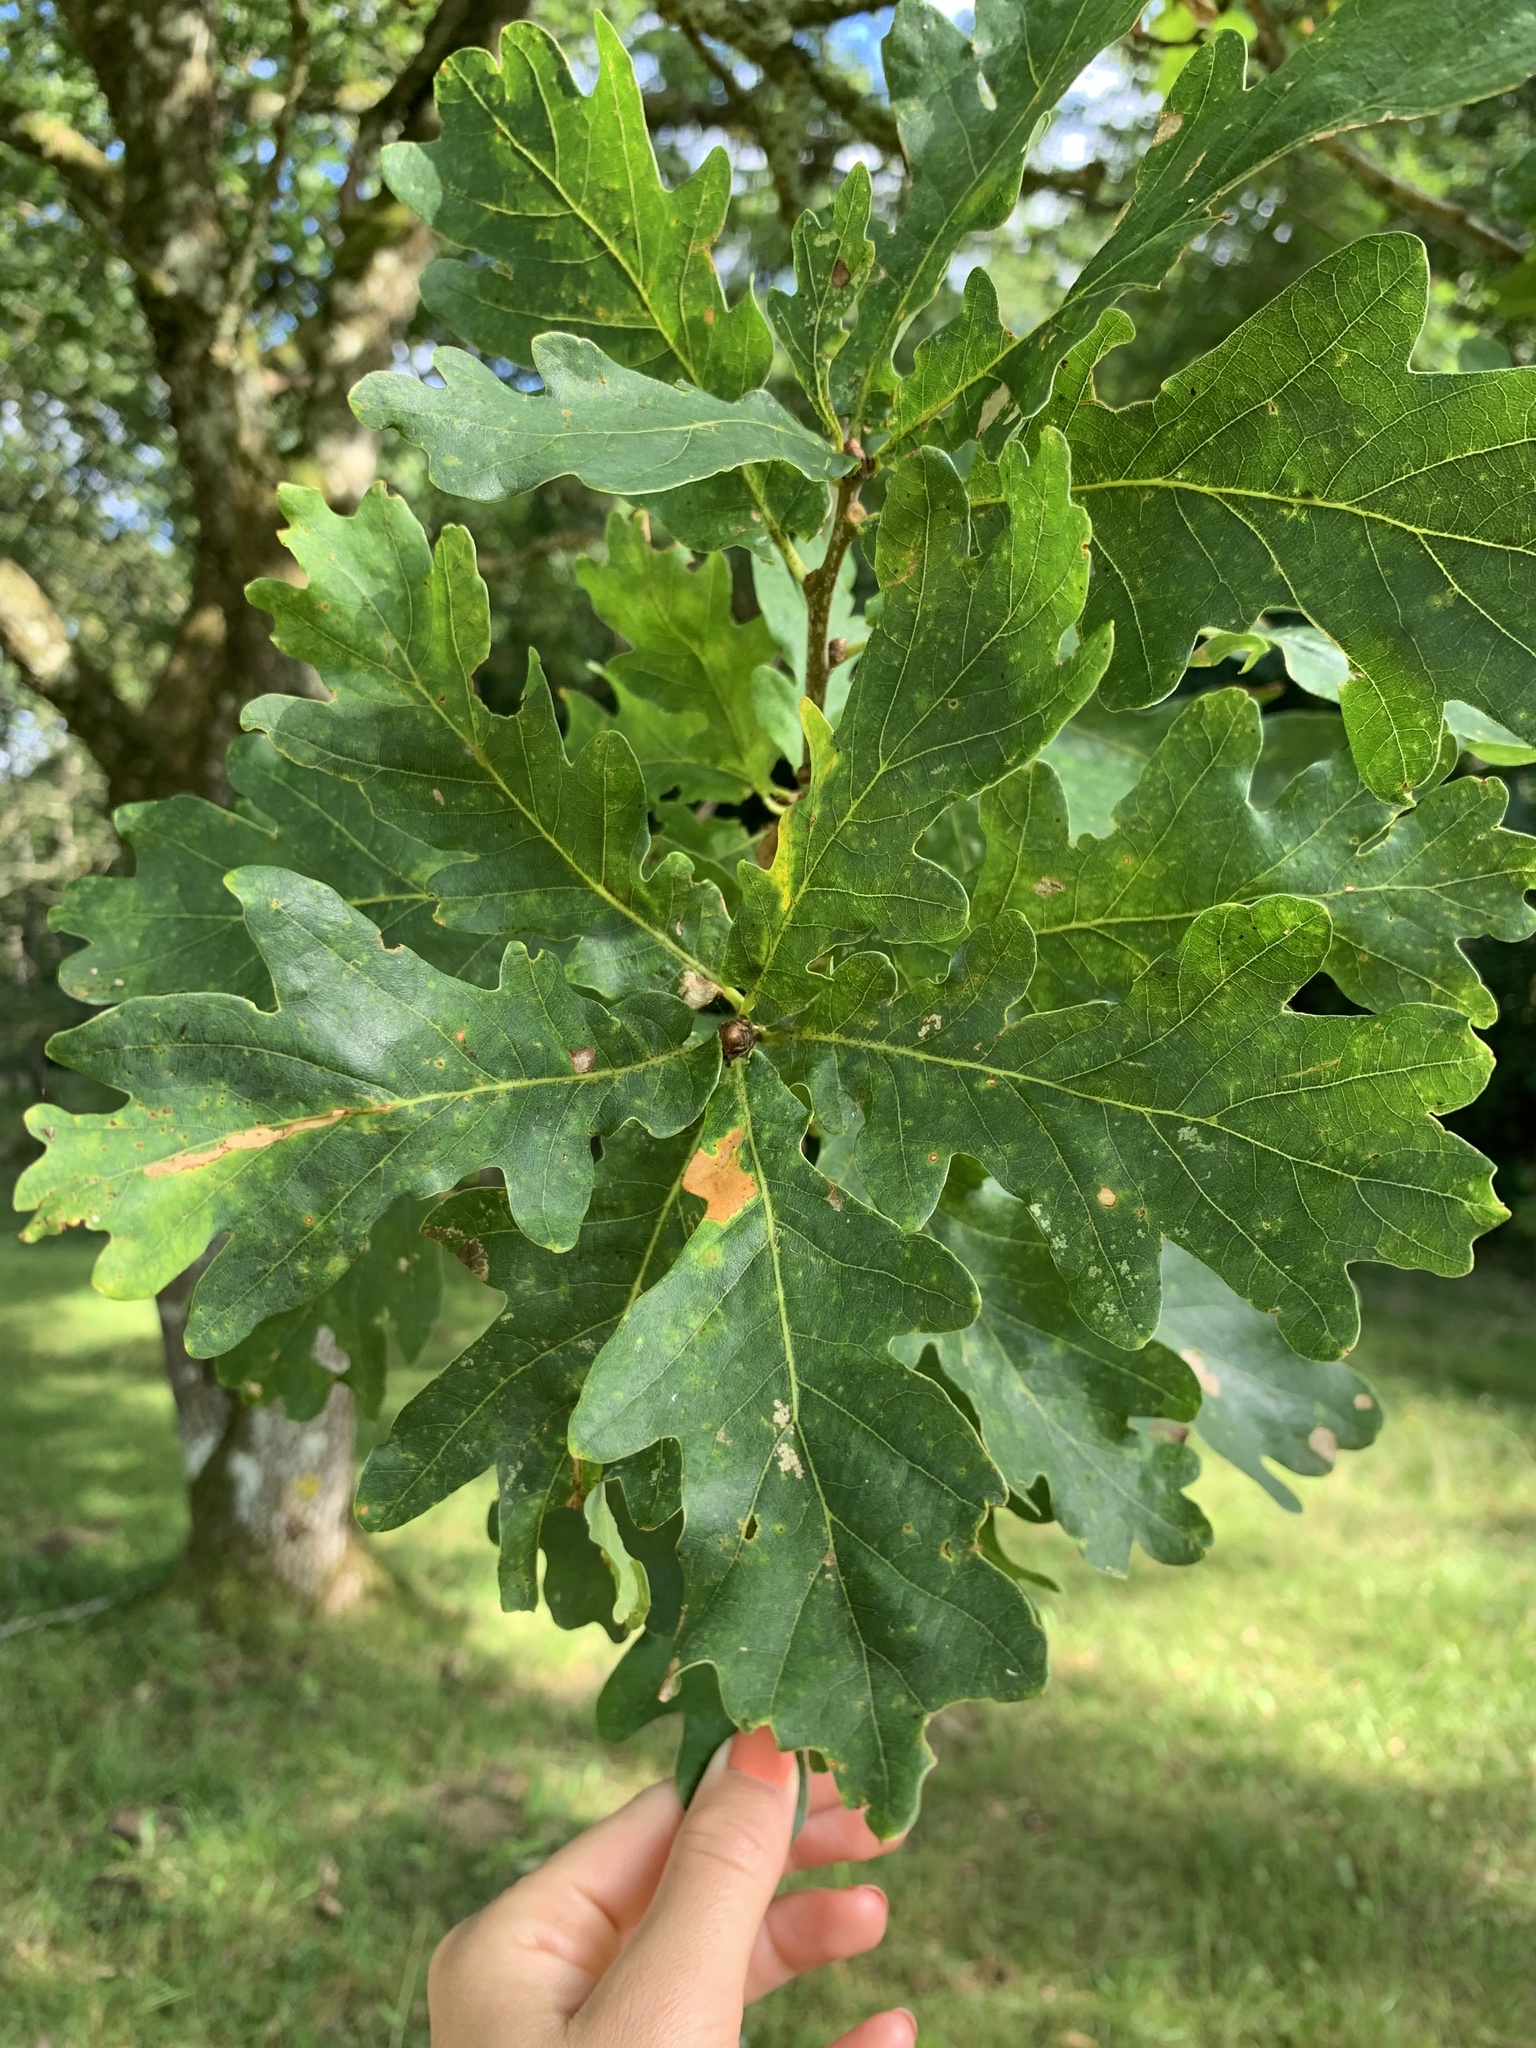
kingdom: Plantae
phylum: Tracheophyta
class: Magnoliopsida
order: Fagales
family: Fagaceae
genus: Quercus
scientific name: Quercus robur
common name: Pedunculate oak
